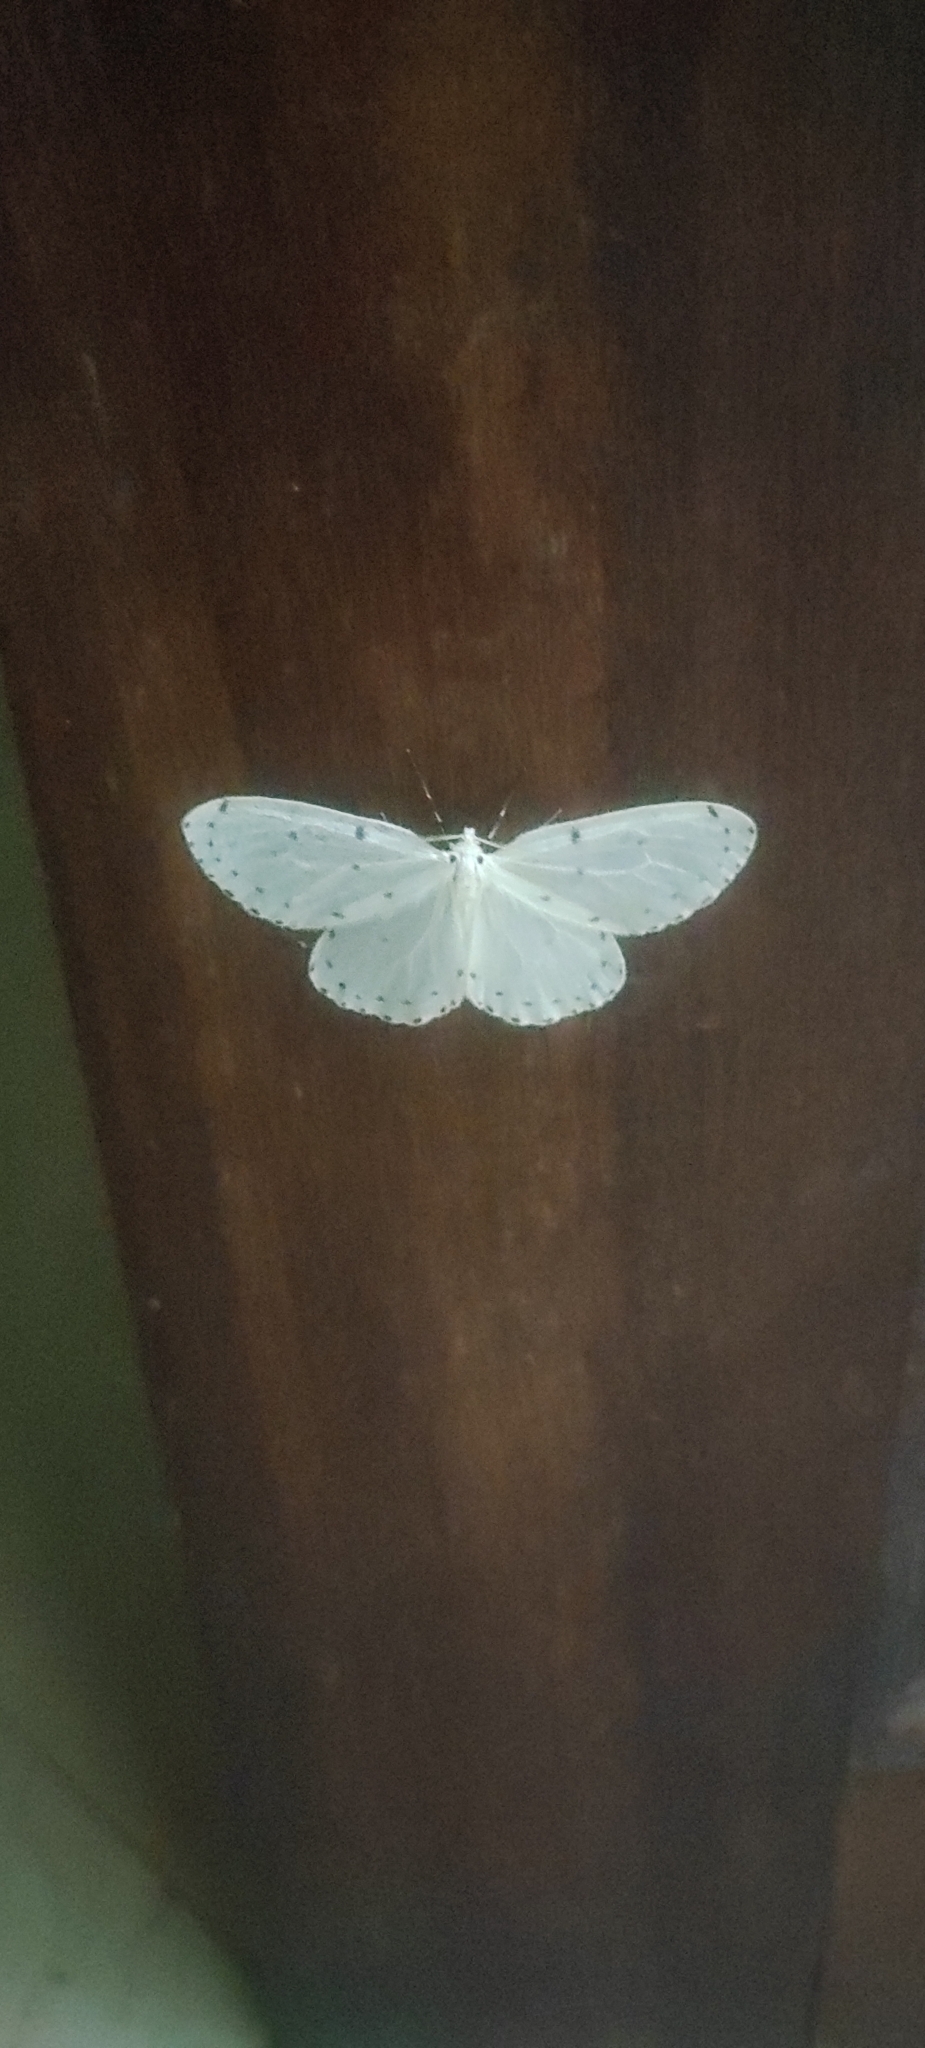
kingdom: Animalia
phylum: Arthropoda
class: Insecta
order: Lepidoptera
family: Geometridae
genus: Naxa
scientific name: Naxa textilis
